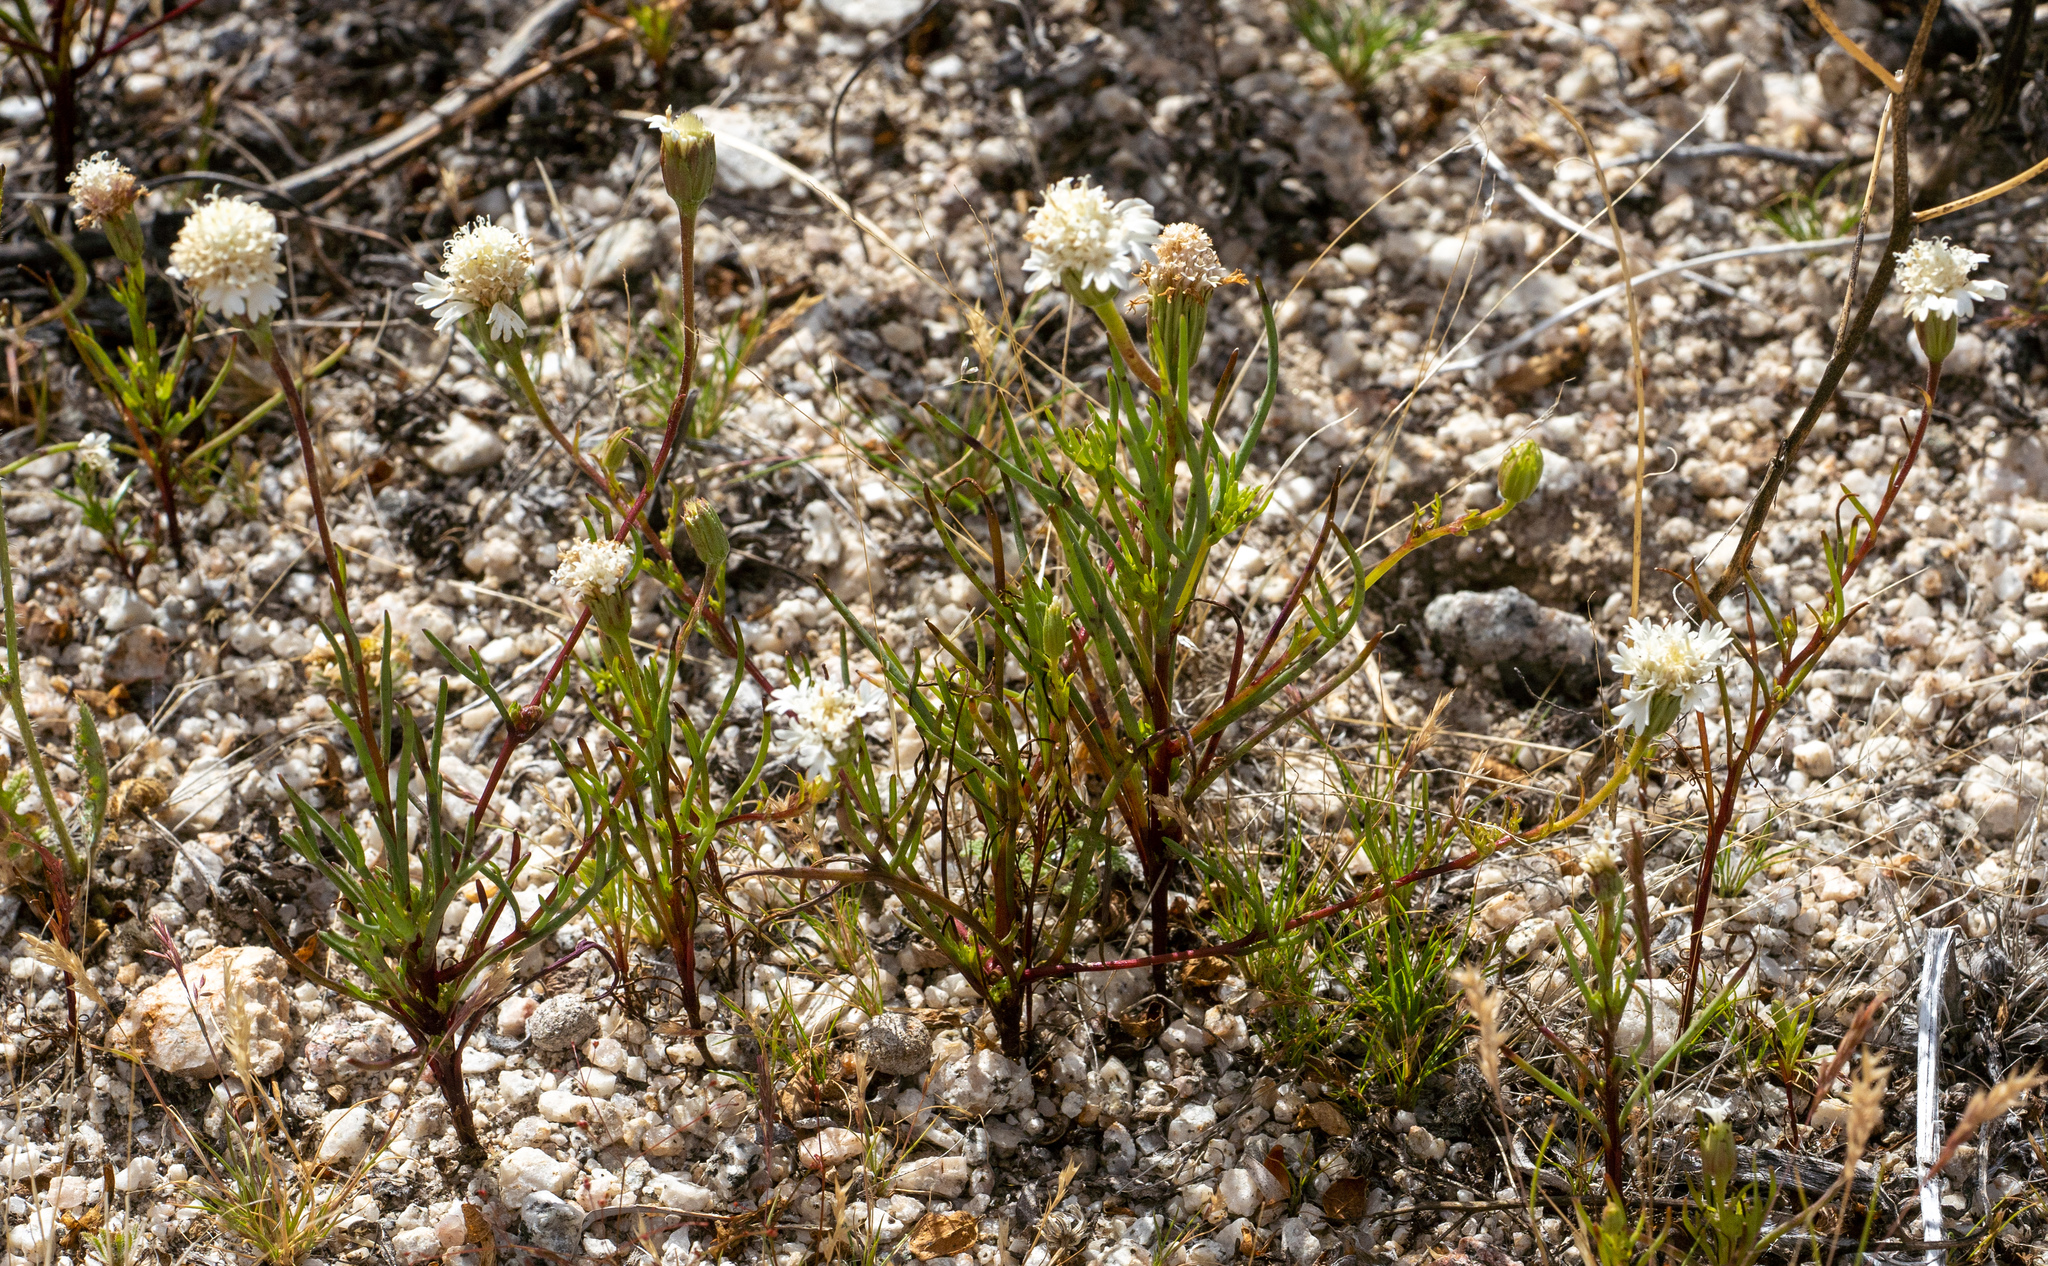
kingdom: Plantae
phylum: Tracheophyta
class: Magnoliopsida
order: Asterales
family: Asteraceae
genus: Chaenactis
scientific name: Chaenactis fremontii
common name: Fremont pincushion
